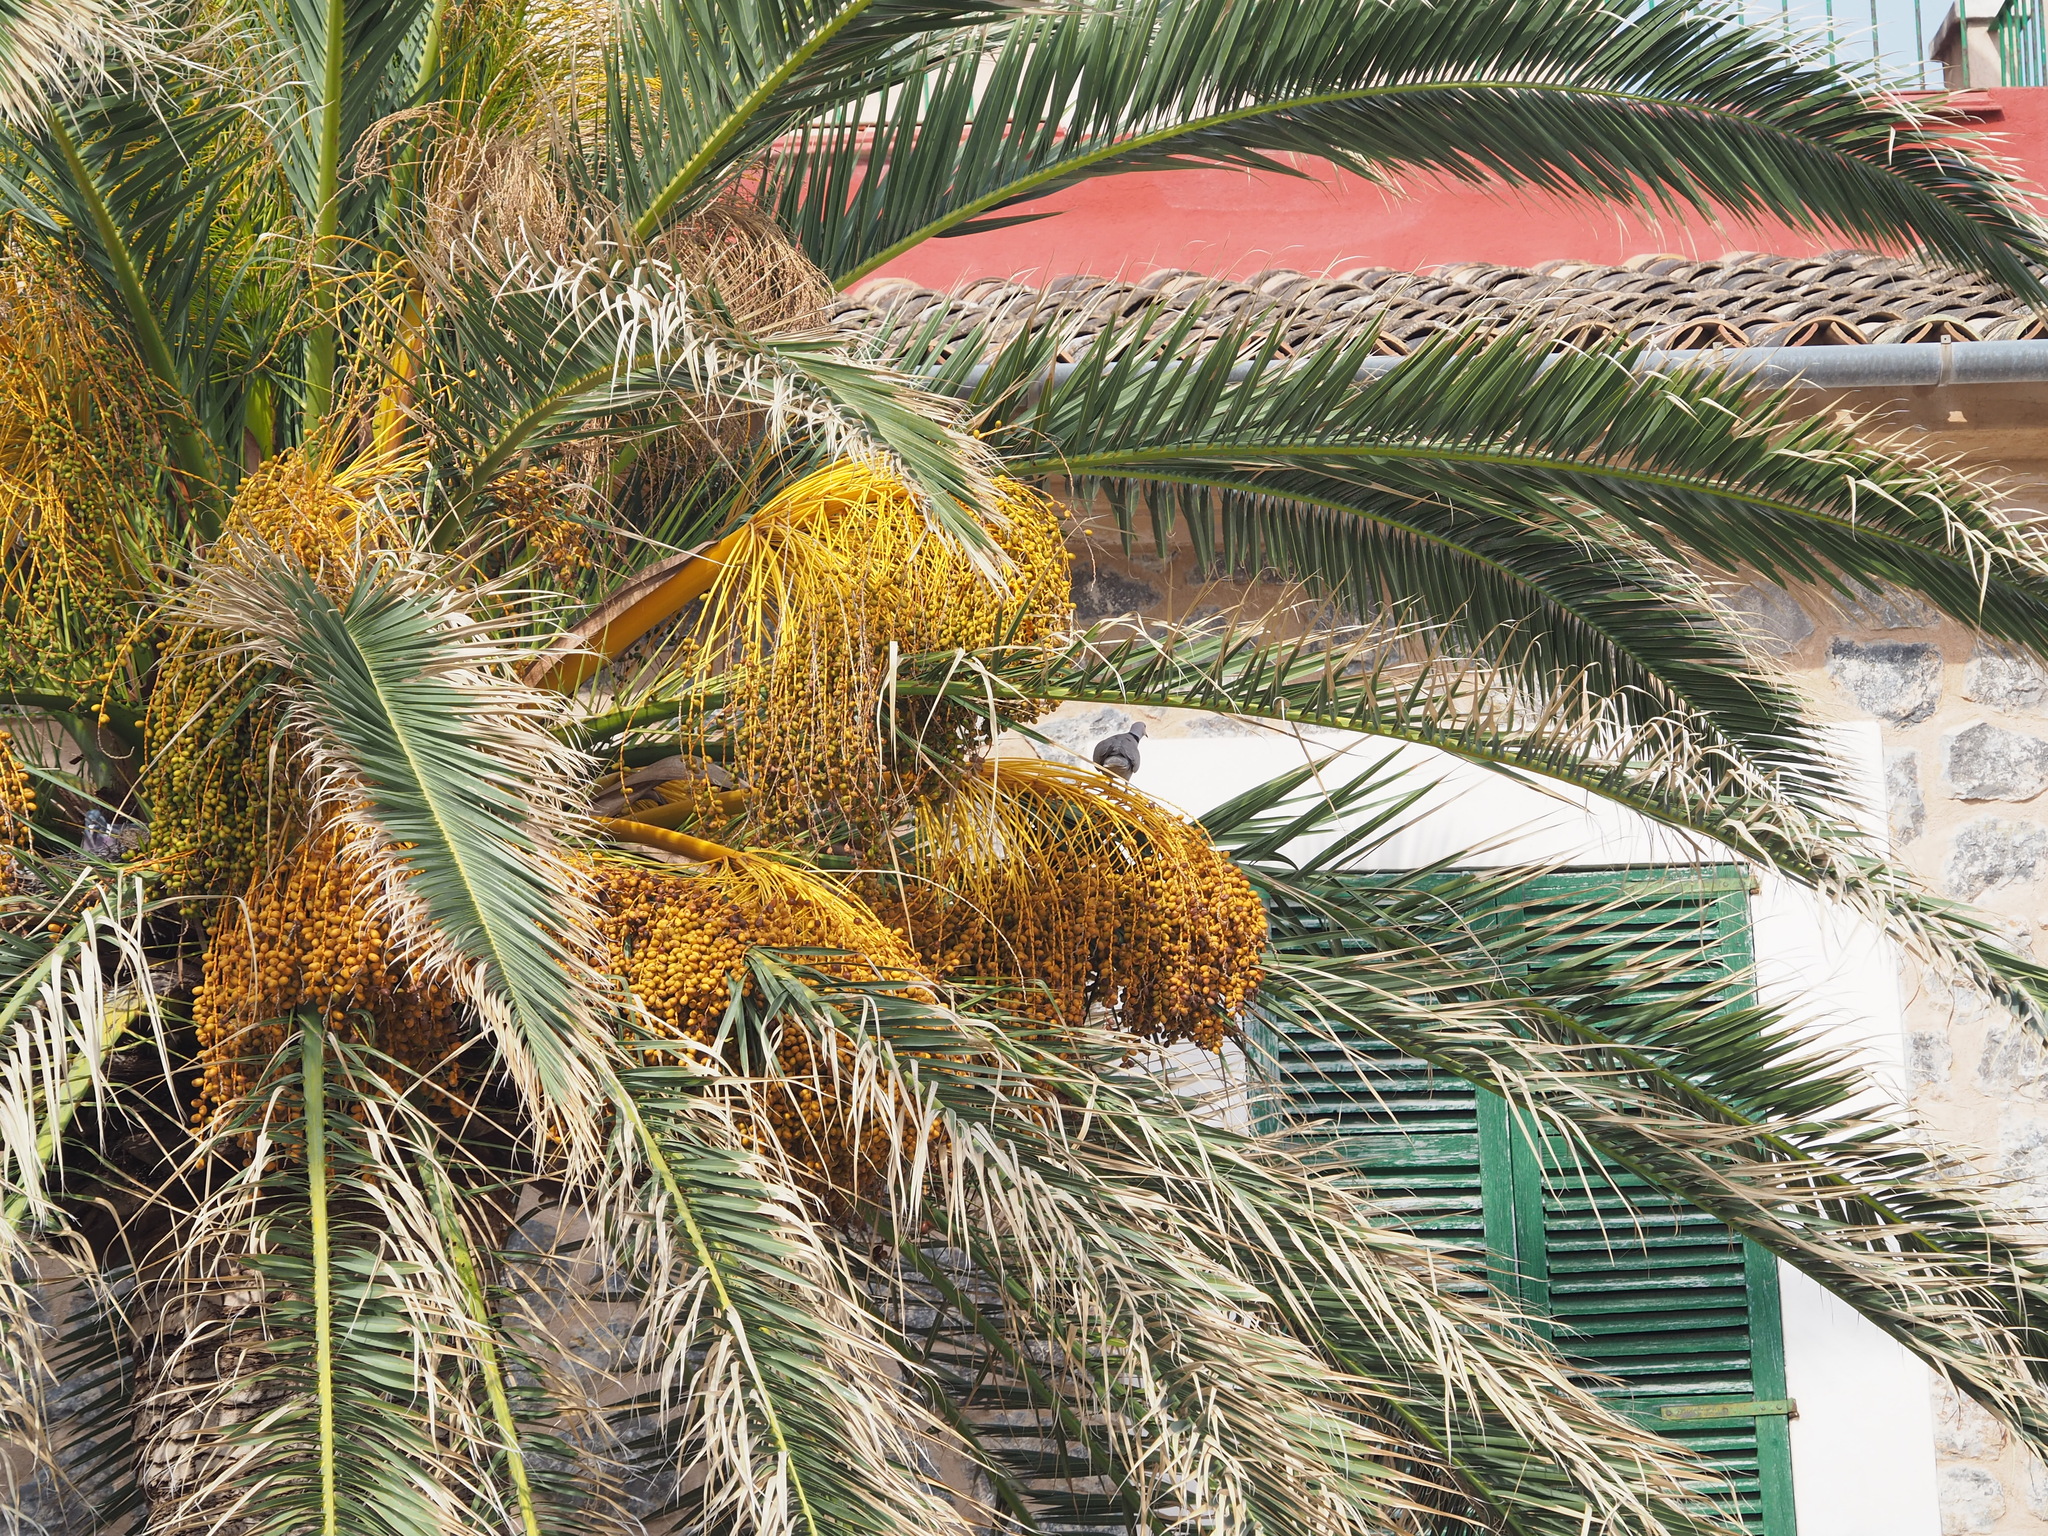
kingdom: Animalia
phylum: Chordata
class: Aves
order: Columbiformes
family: Columbidae
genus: Streptopelia
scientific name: Streptopelia decaocto
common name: Eurasian collared dove
